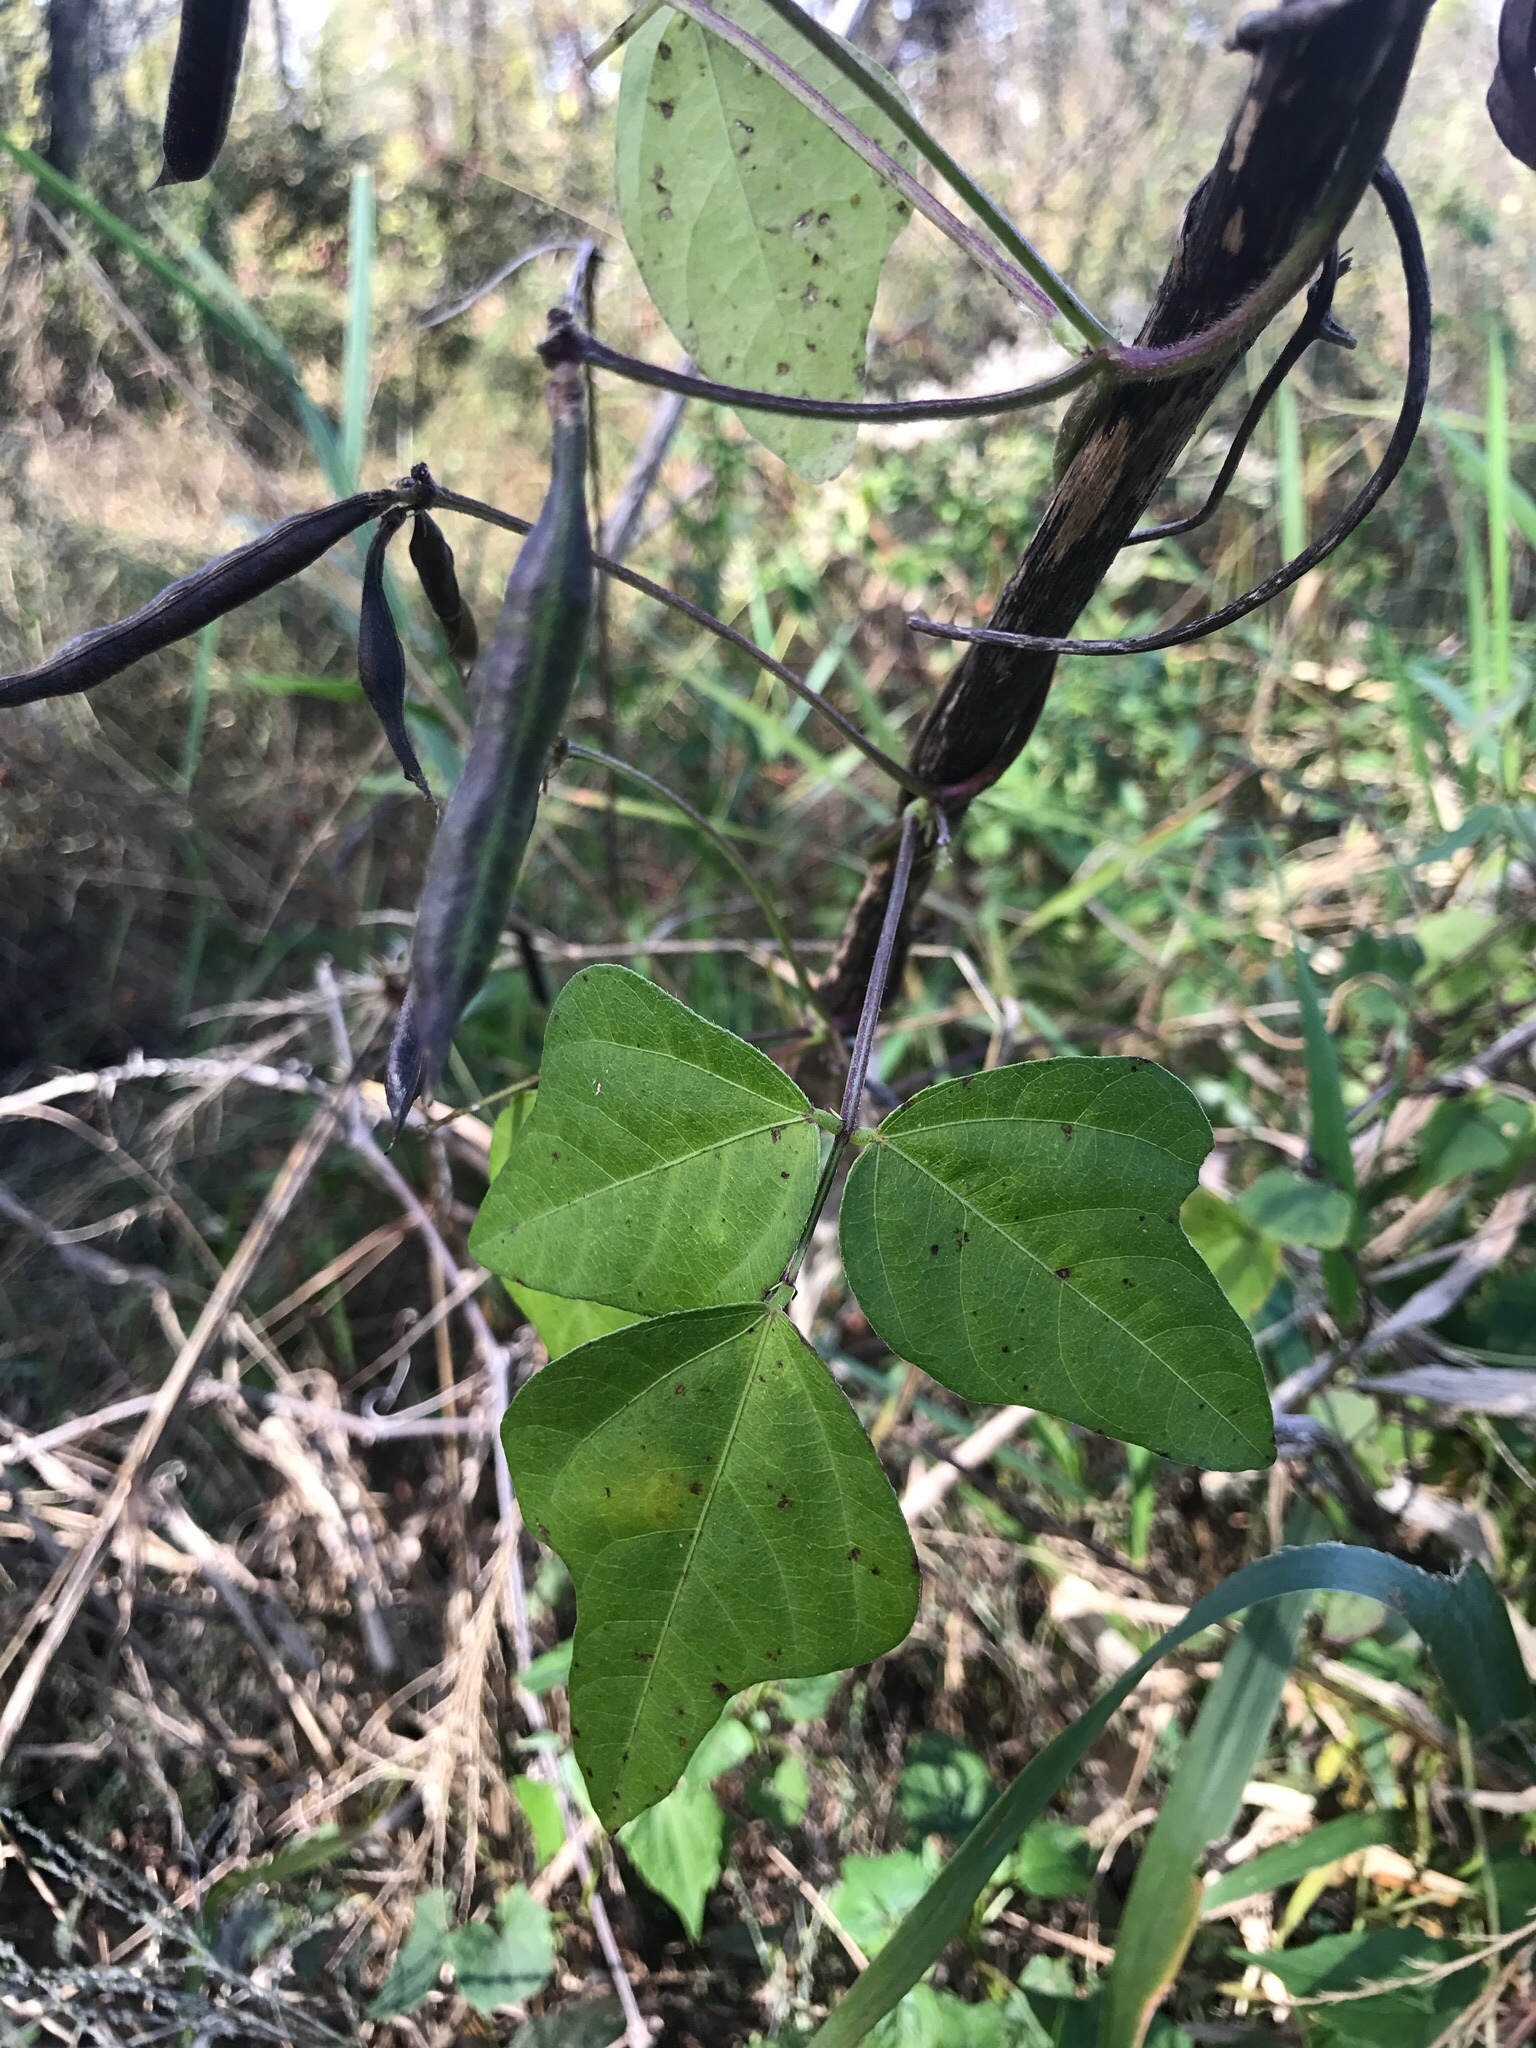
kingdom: Plantae
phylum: Tracheophyta
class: Magnoliopsida
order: Fabales
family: Fabaceae
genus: Strophostyles
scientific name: Strophostyles helvola
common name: Trailing wild bean
